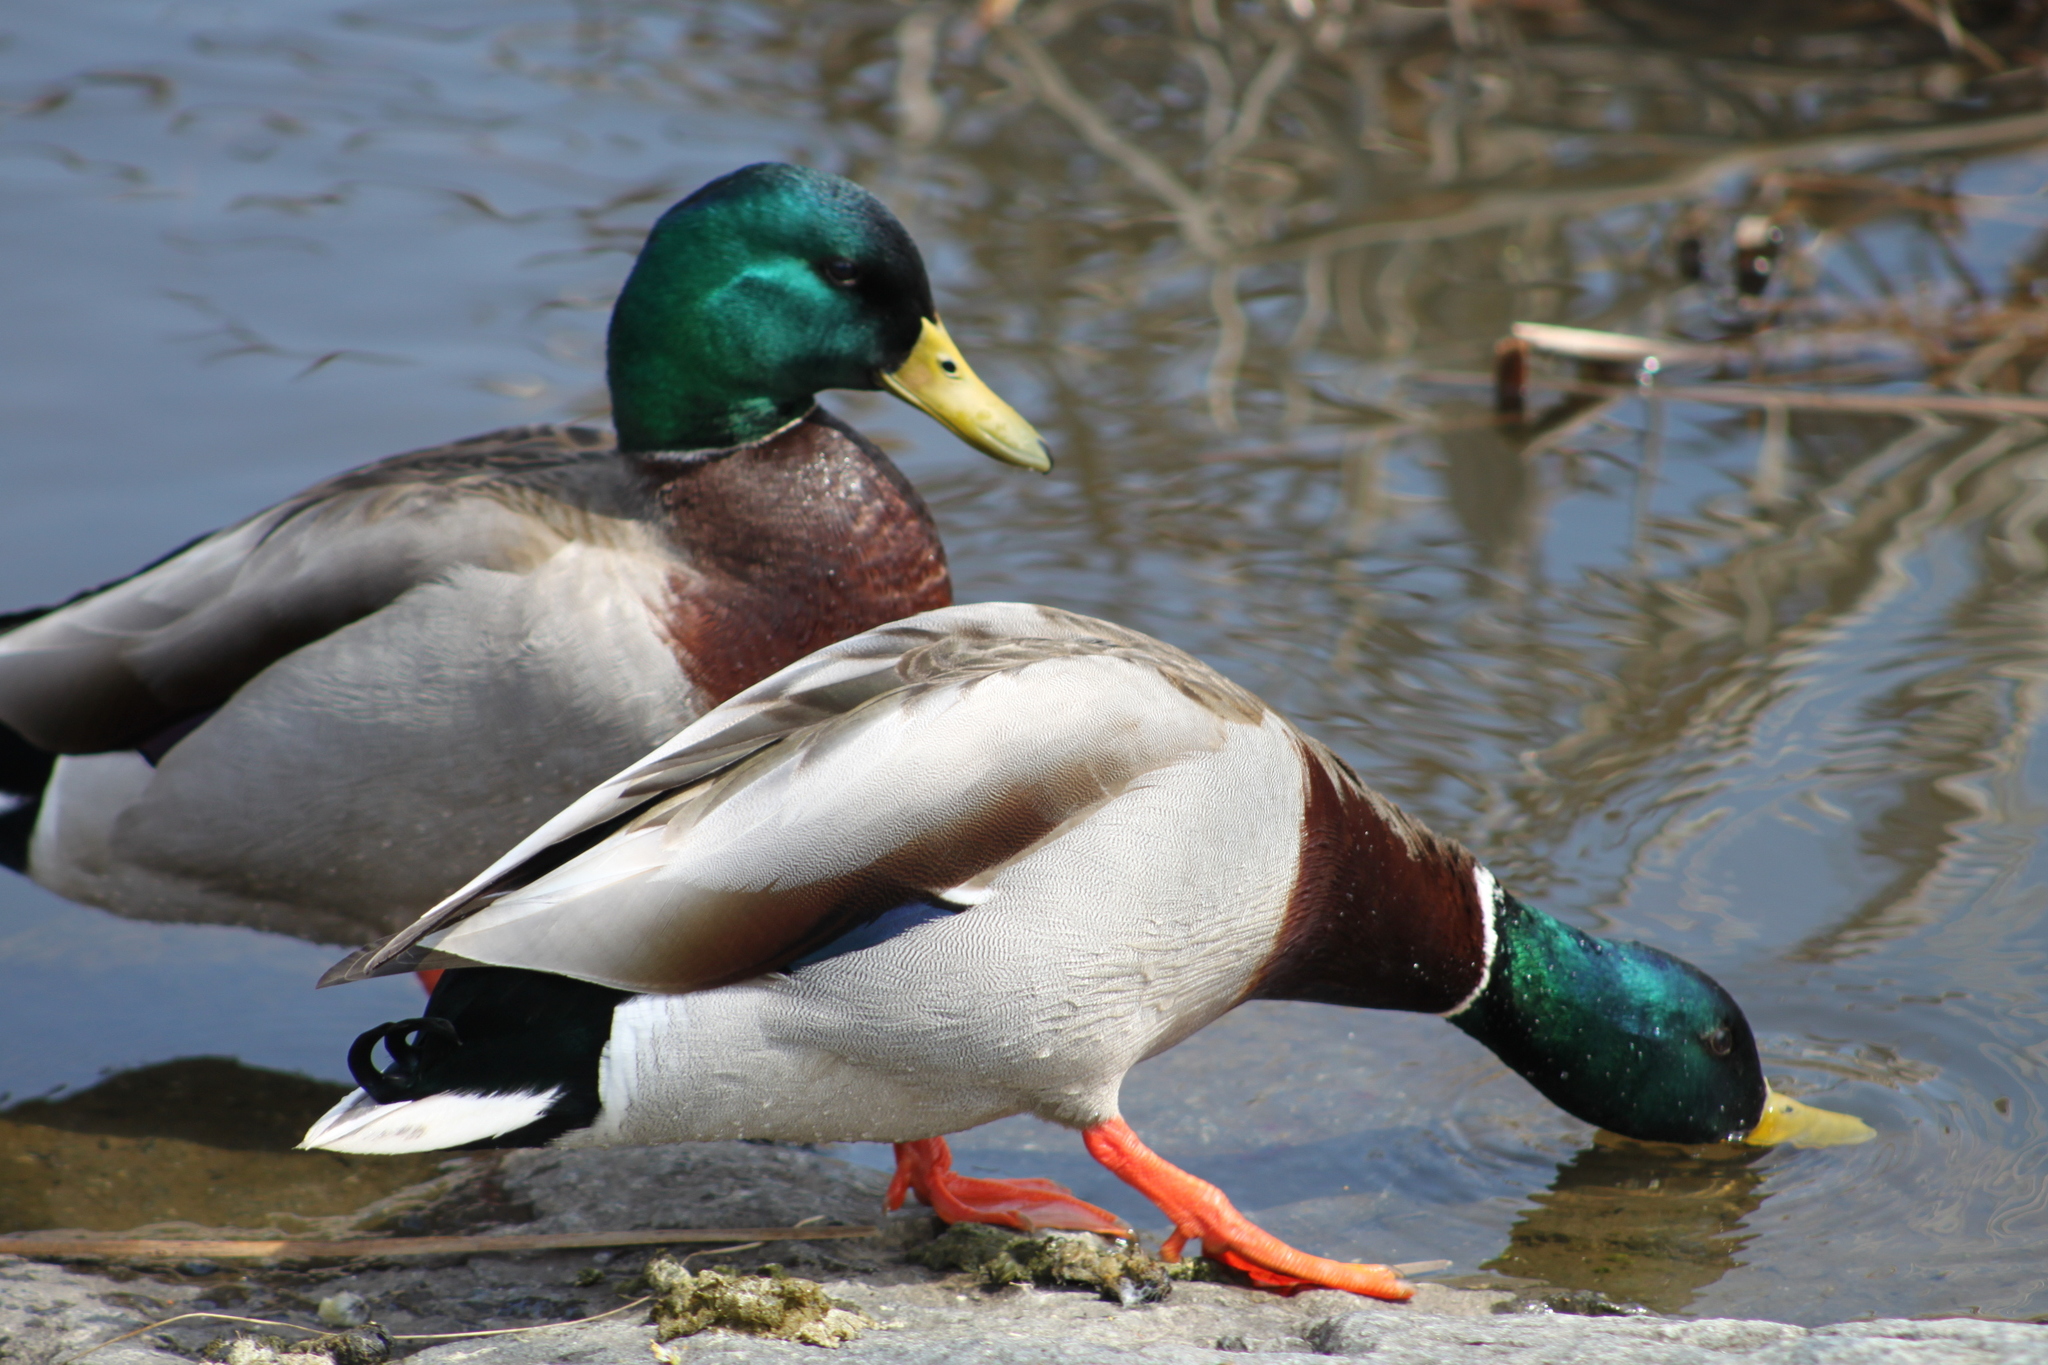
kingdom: Animalia
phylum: Chordata
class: Aves
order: Anseriformes
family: Anatidae
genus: Anas
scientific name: Anas platyrhynchos
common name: Mallard
